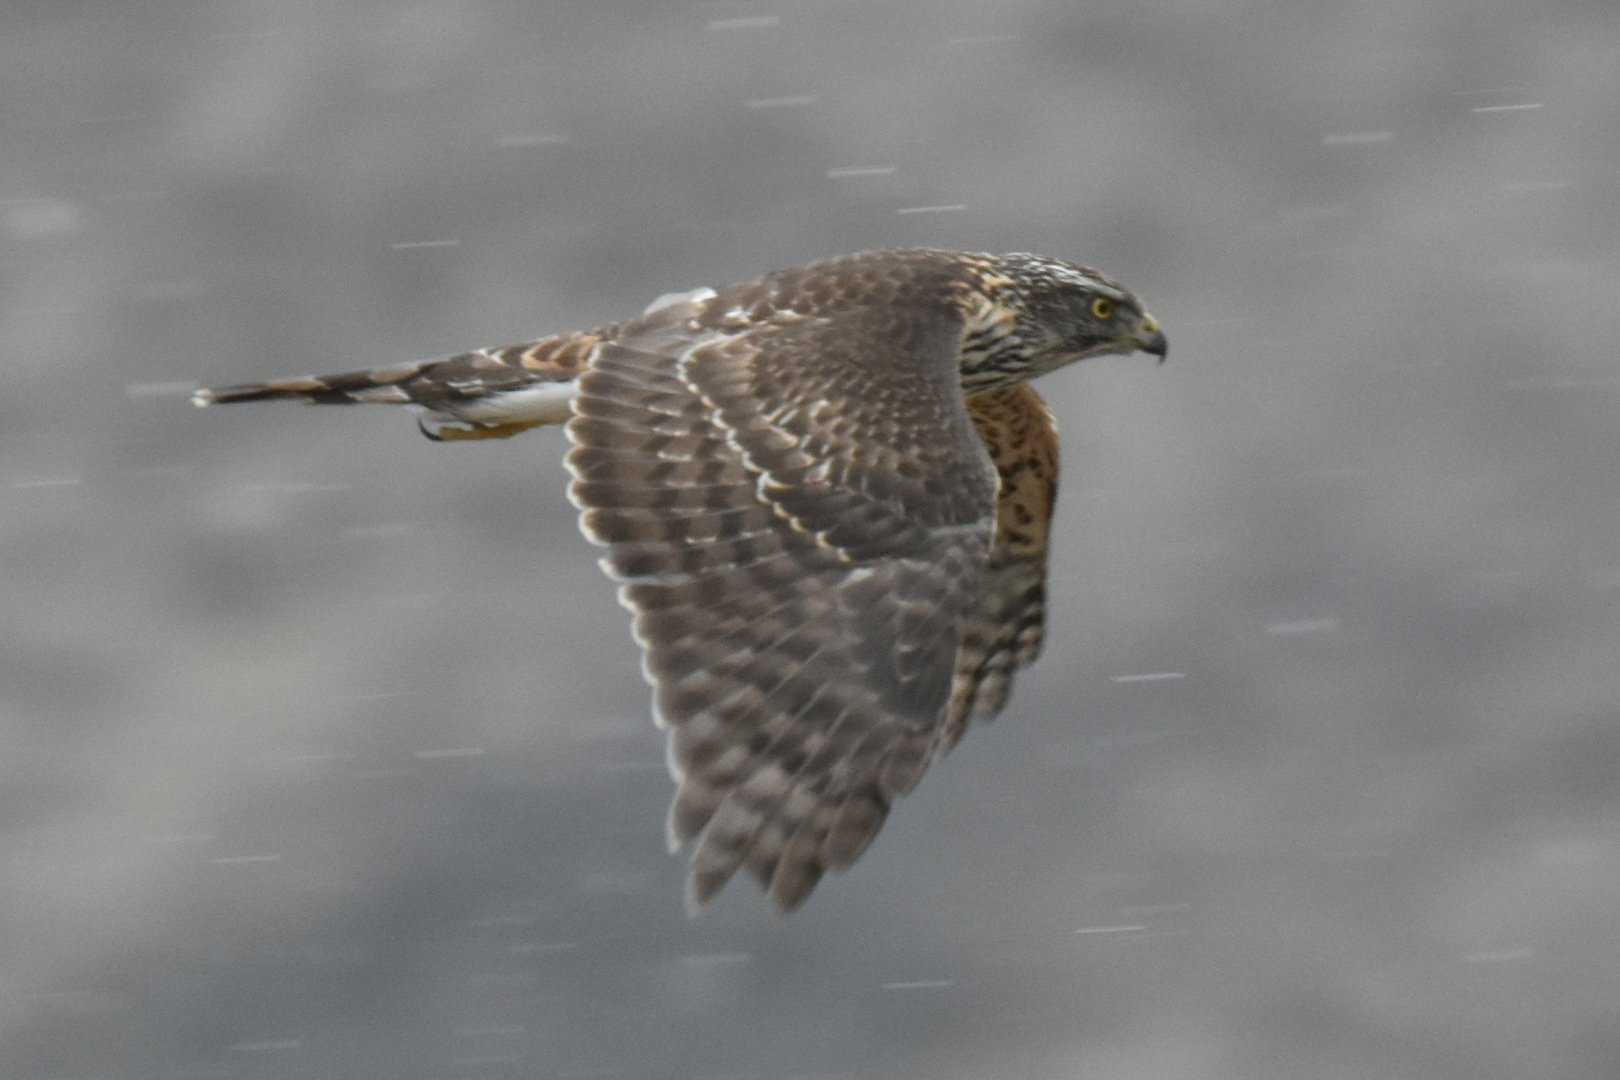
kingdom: Animalia
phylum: Chordata
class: Aves
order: Accipitriformes
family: Accipitridae
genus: Accipiter
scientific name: Accipiter gentilis
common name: Northern goshawk
